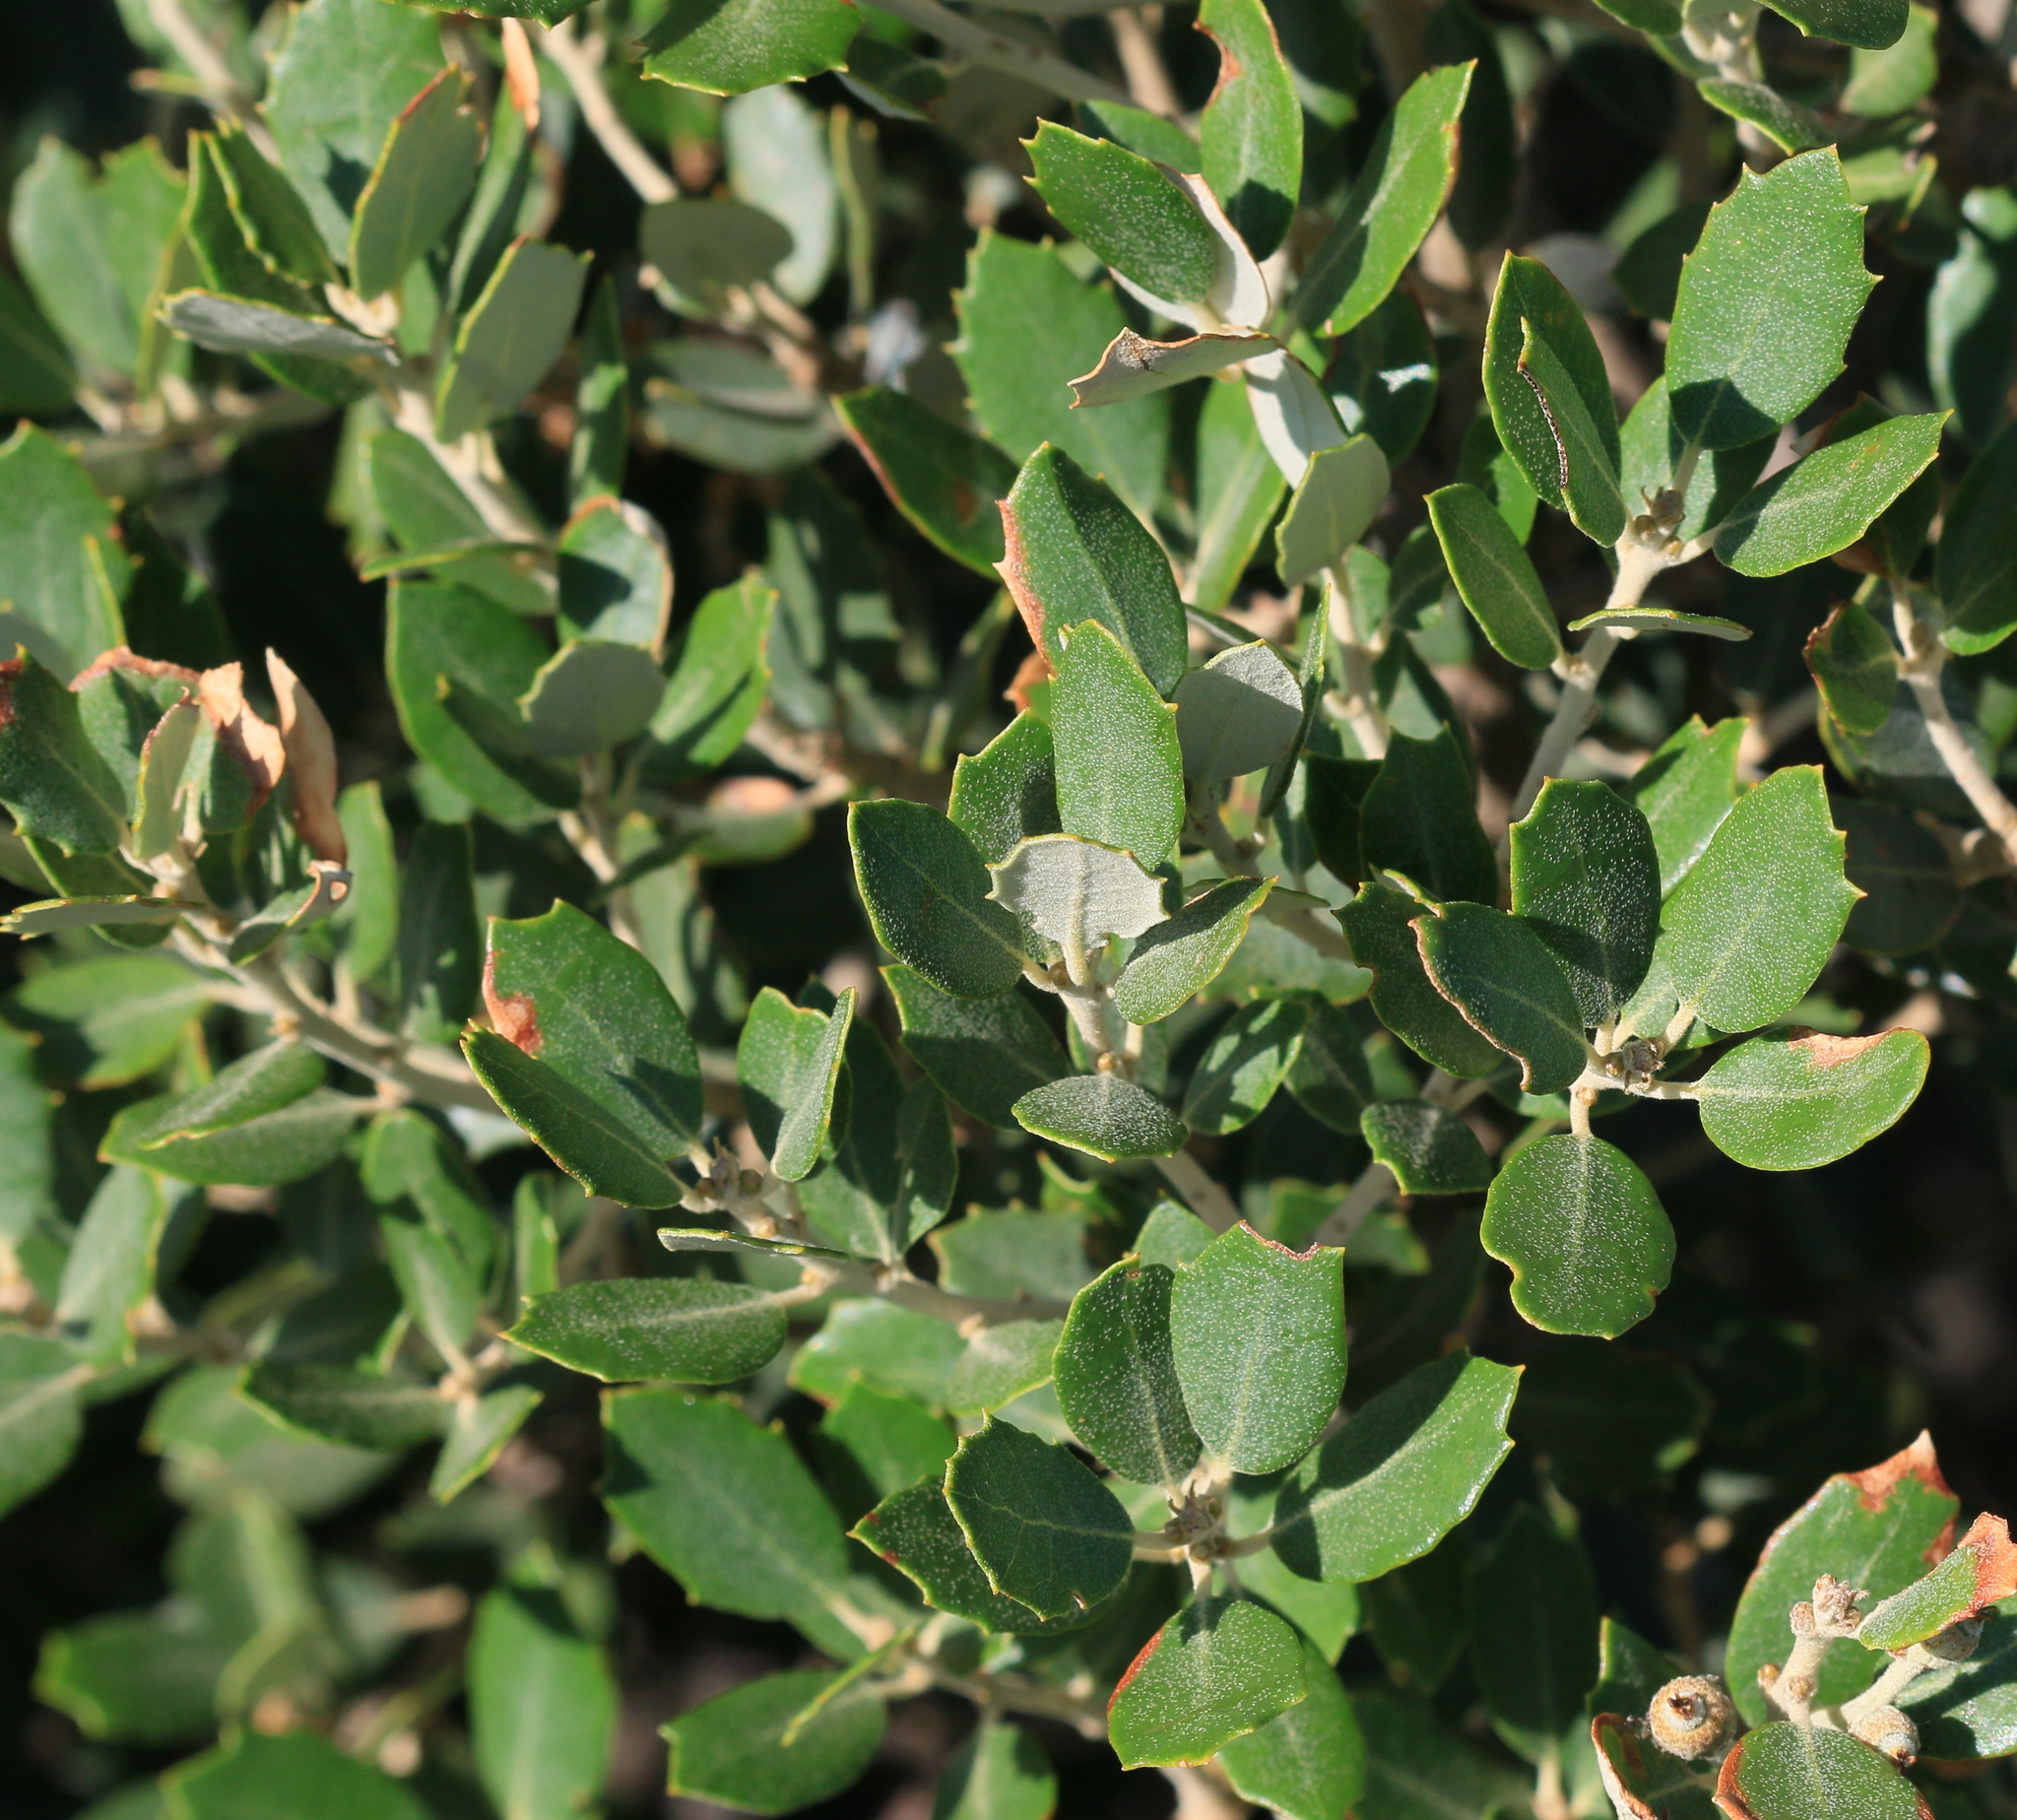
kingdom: Plantae
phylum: Tracheophyta
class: Magnoliopsida
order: Fagales
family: Fagaceae
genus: Quercus
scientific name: Quercus rotundifolia
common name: Holm oak
